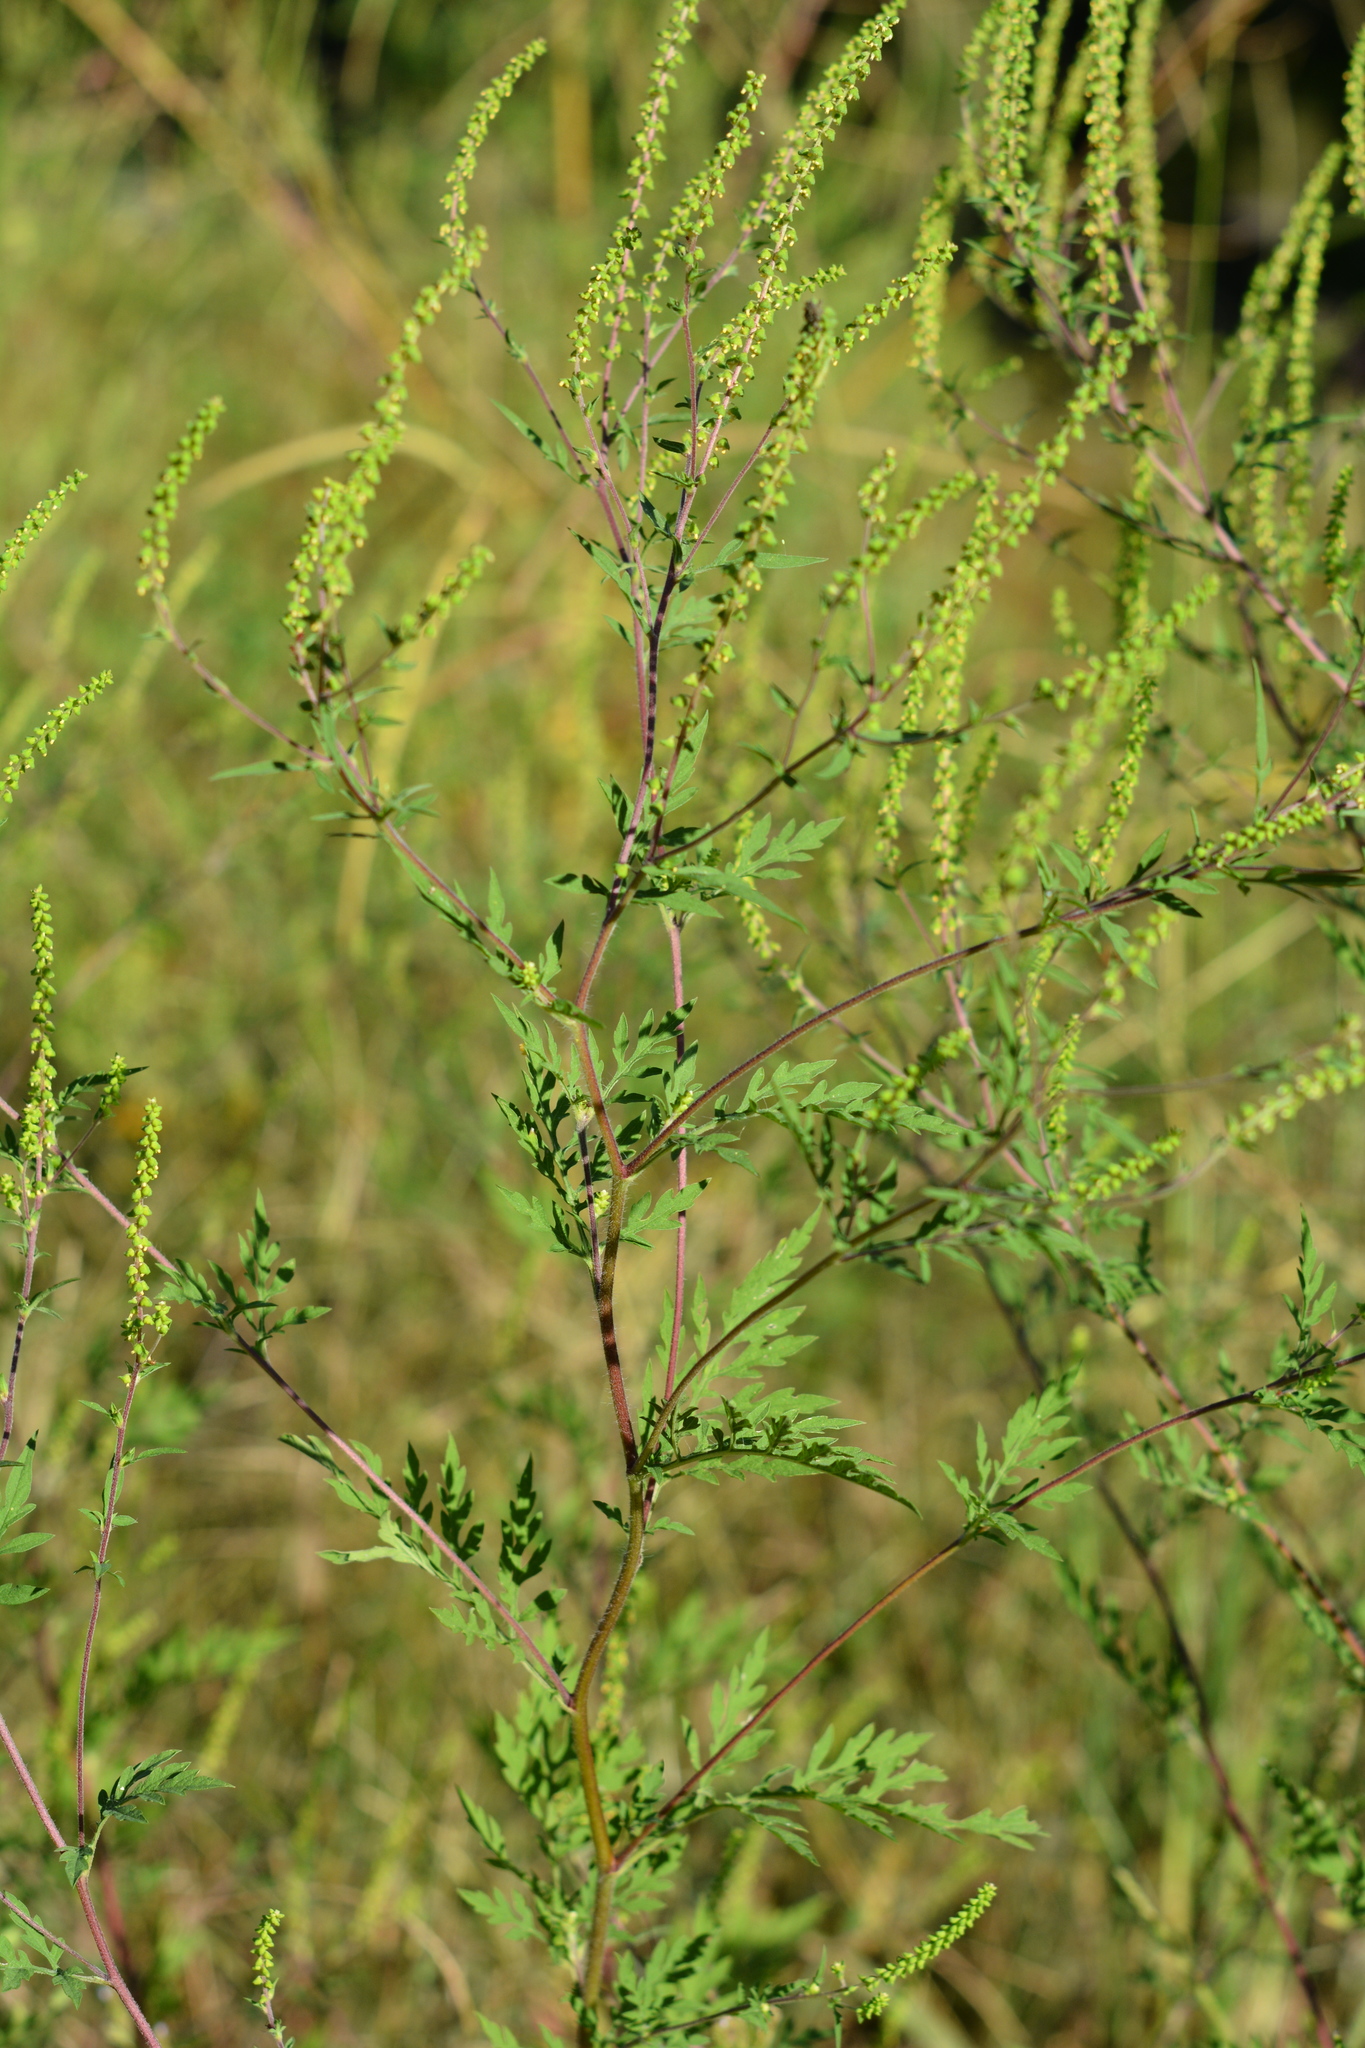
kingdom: Plantae
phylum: Tracheophyta
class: Magnoliopsida
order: Asterales
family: Asteraceae
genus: Ambrosia
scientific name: Ambrosia artemisiifolia
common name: Annual ragweed
